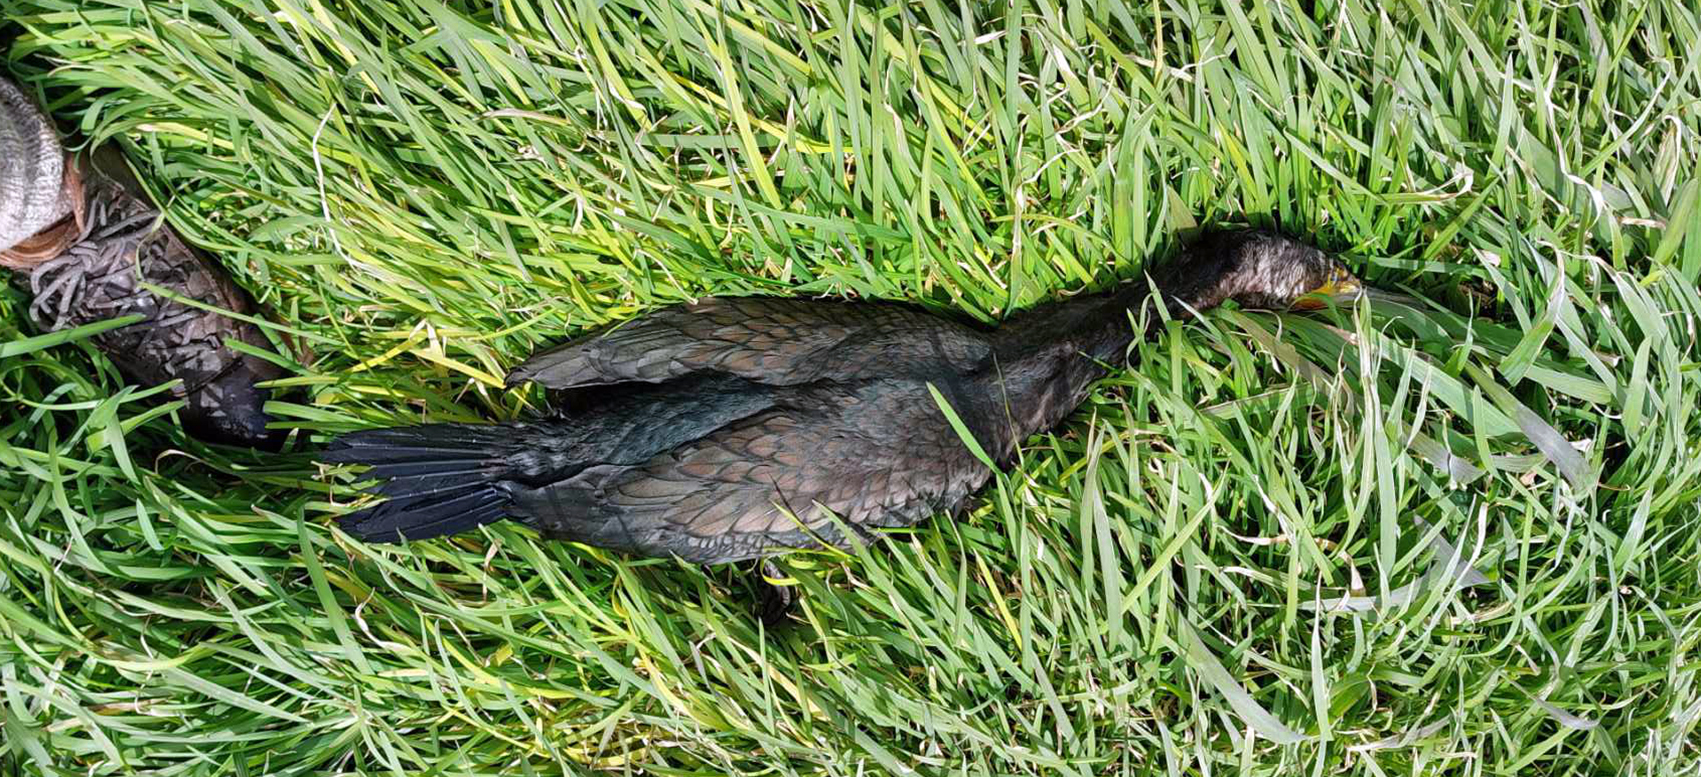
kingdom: Animalia
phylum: Chordata
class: Aves
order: Suliformes
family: Phalacrocoracidae
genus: Phalacrocorax
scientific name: Phalacrocorax carbo
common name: Great cormorant
